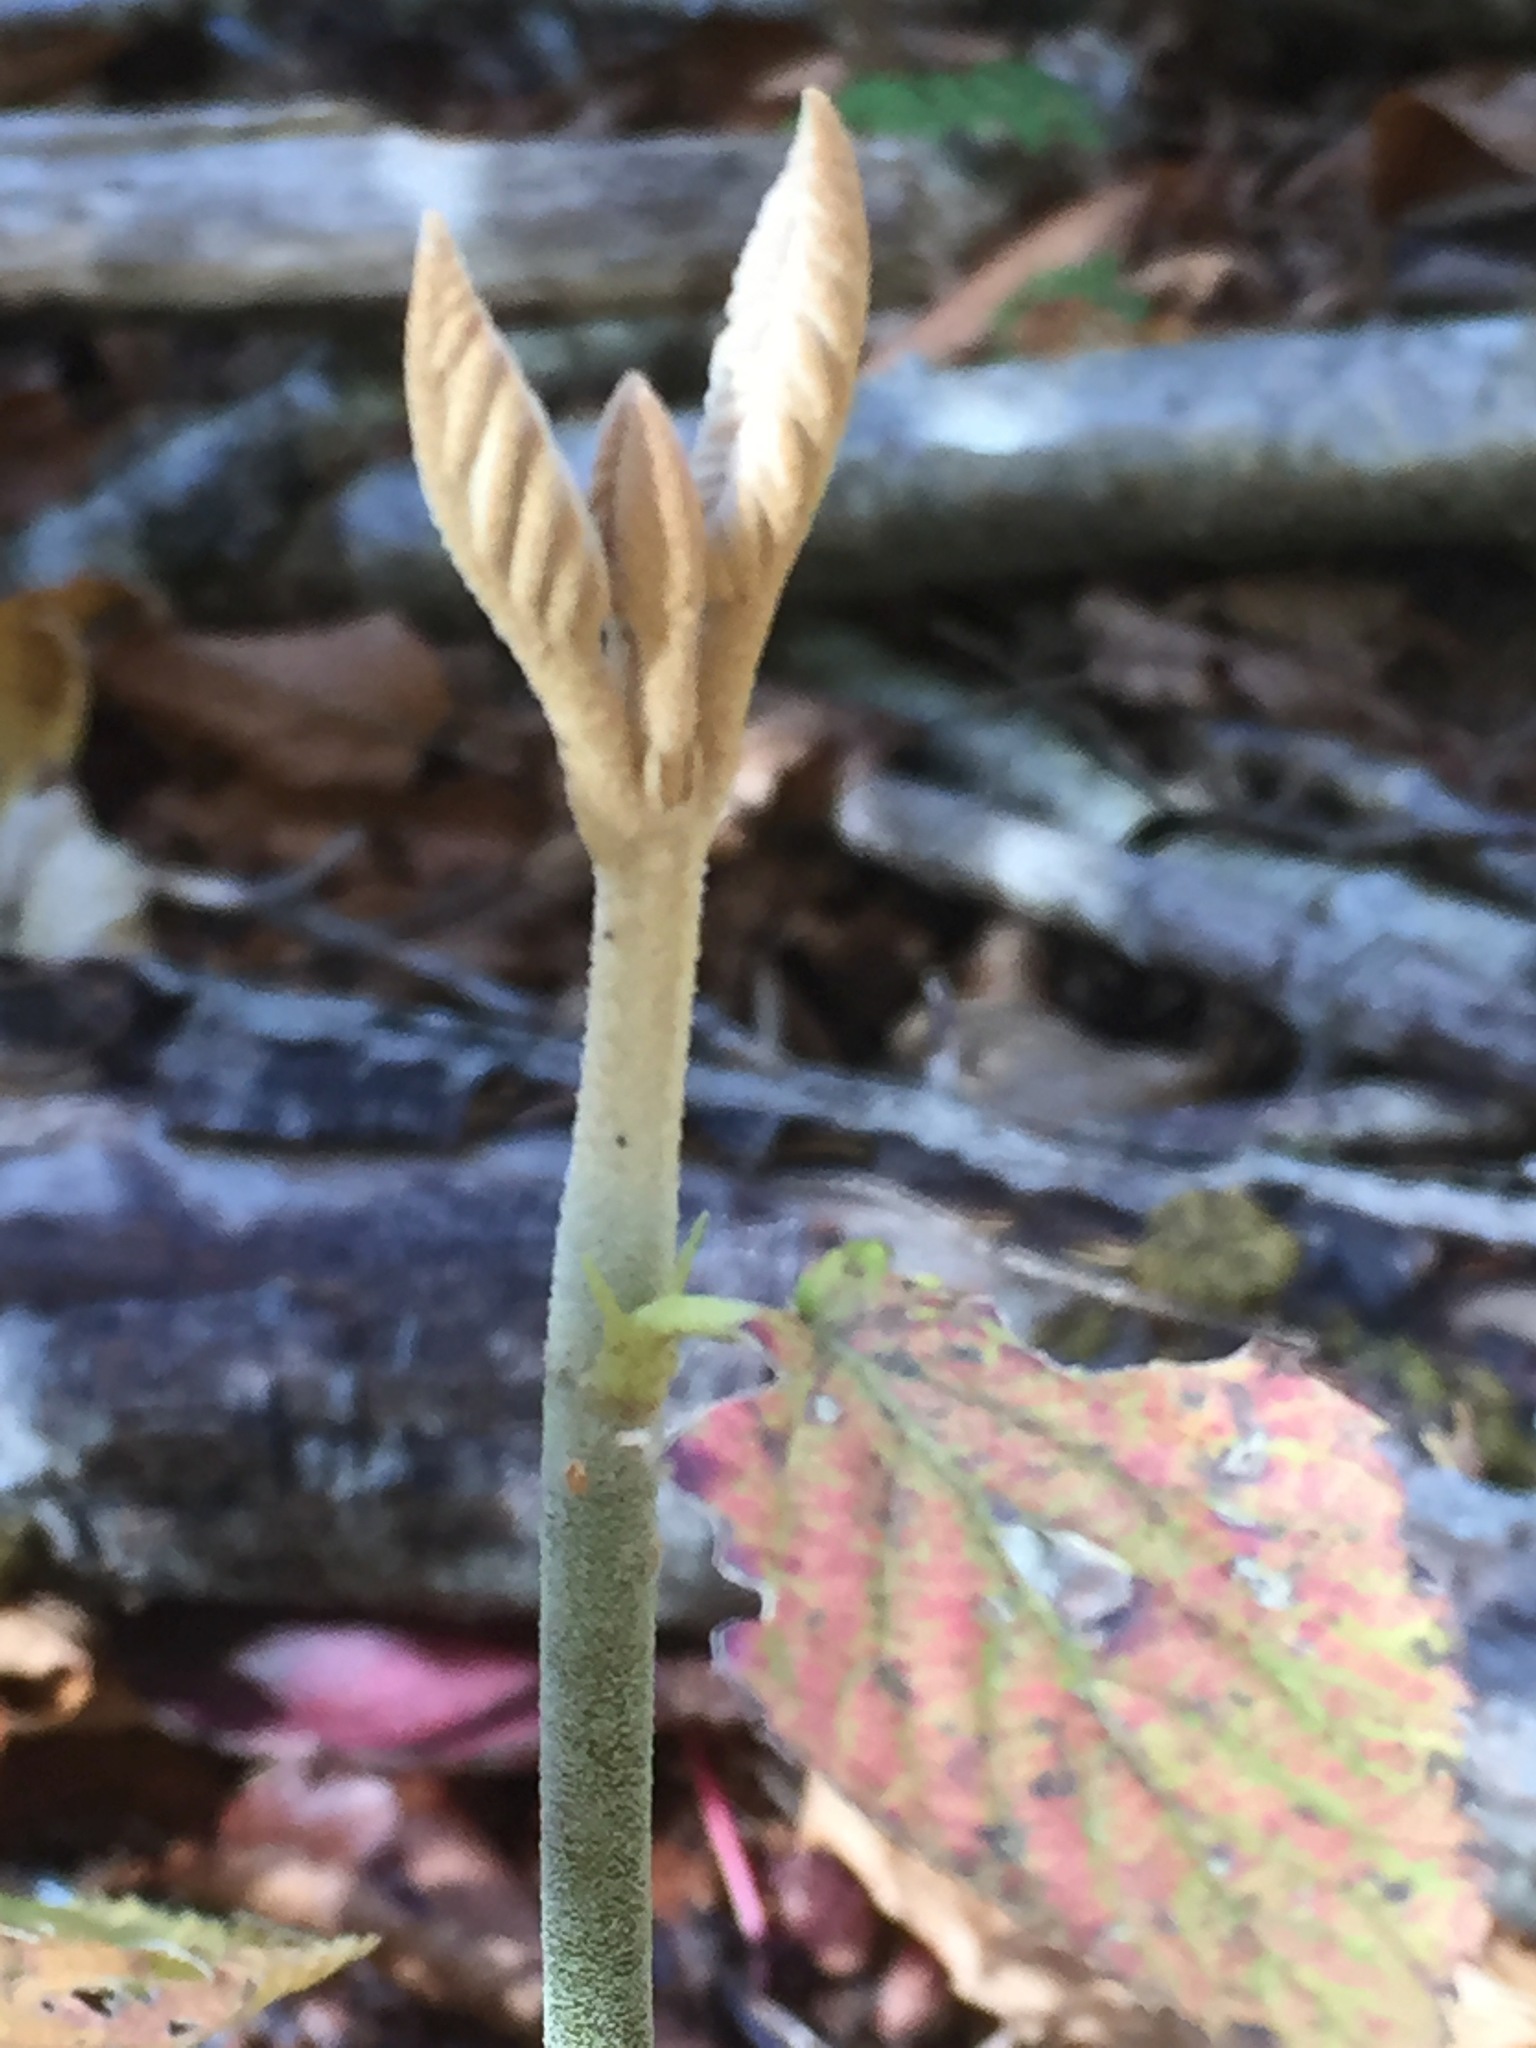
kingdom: Plantae
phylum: Tracheophyta
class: Magnoliopsida
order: Dipsacales
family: Viburnaceae
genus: Viburnum
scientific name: Viburnum lantanoides
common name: Hobblebush
